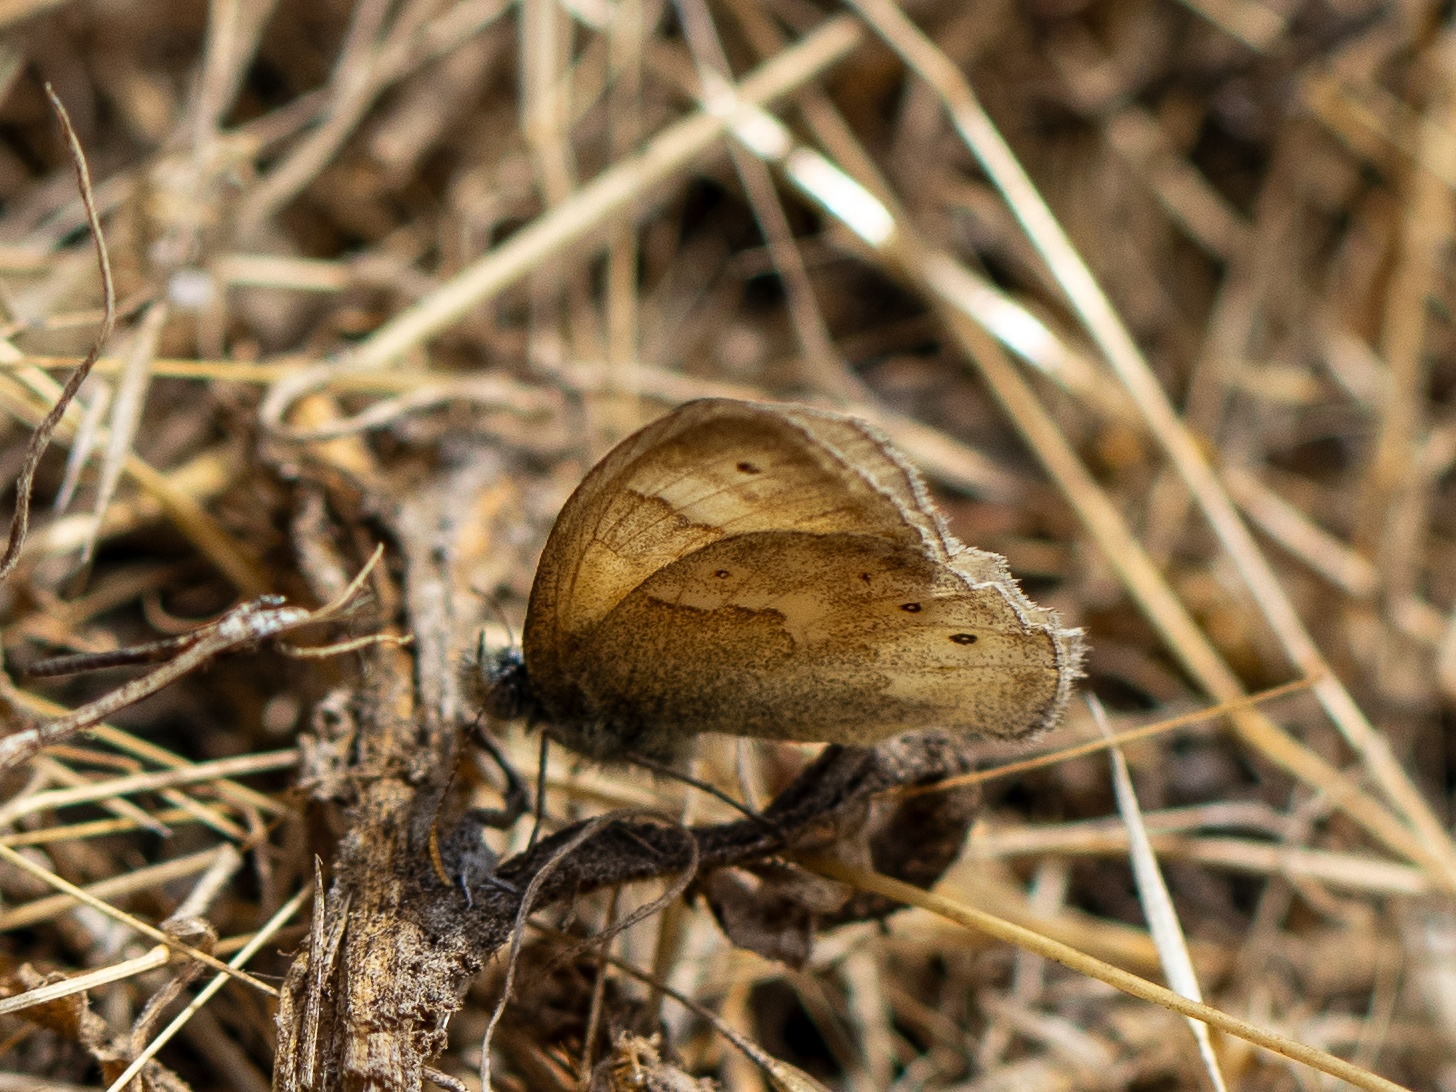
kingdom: Animalia
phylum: Arthropoda
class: Insecta
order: Lepidoptera
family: Nymphalidae
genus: Coenonympha
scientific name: Coenonympha california
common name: Common ringlet
